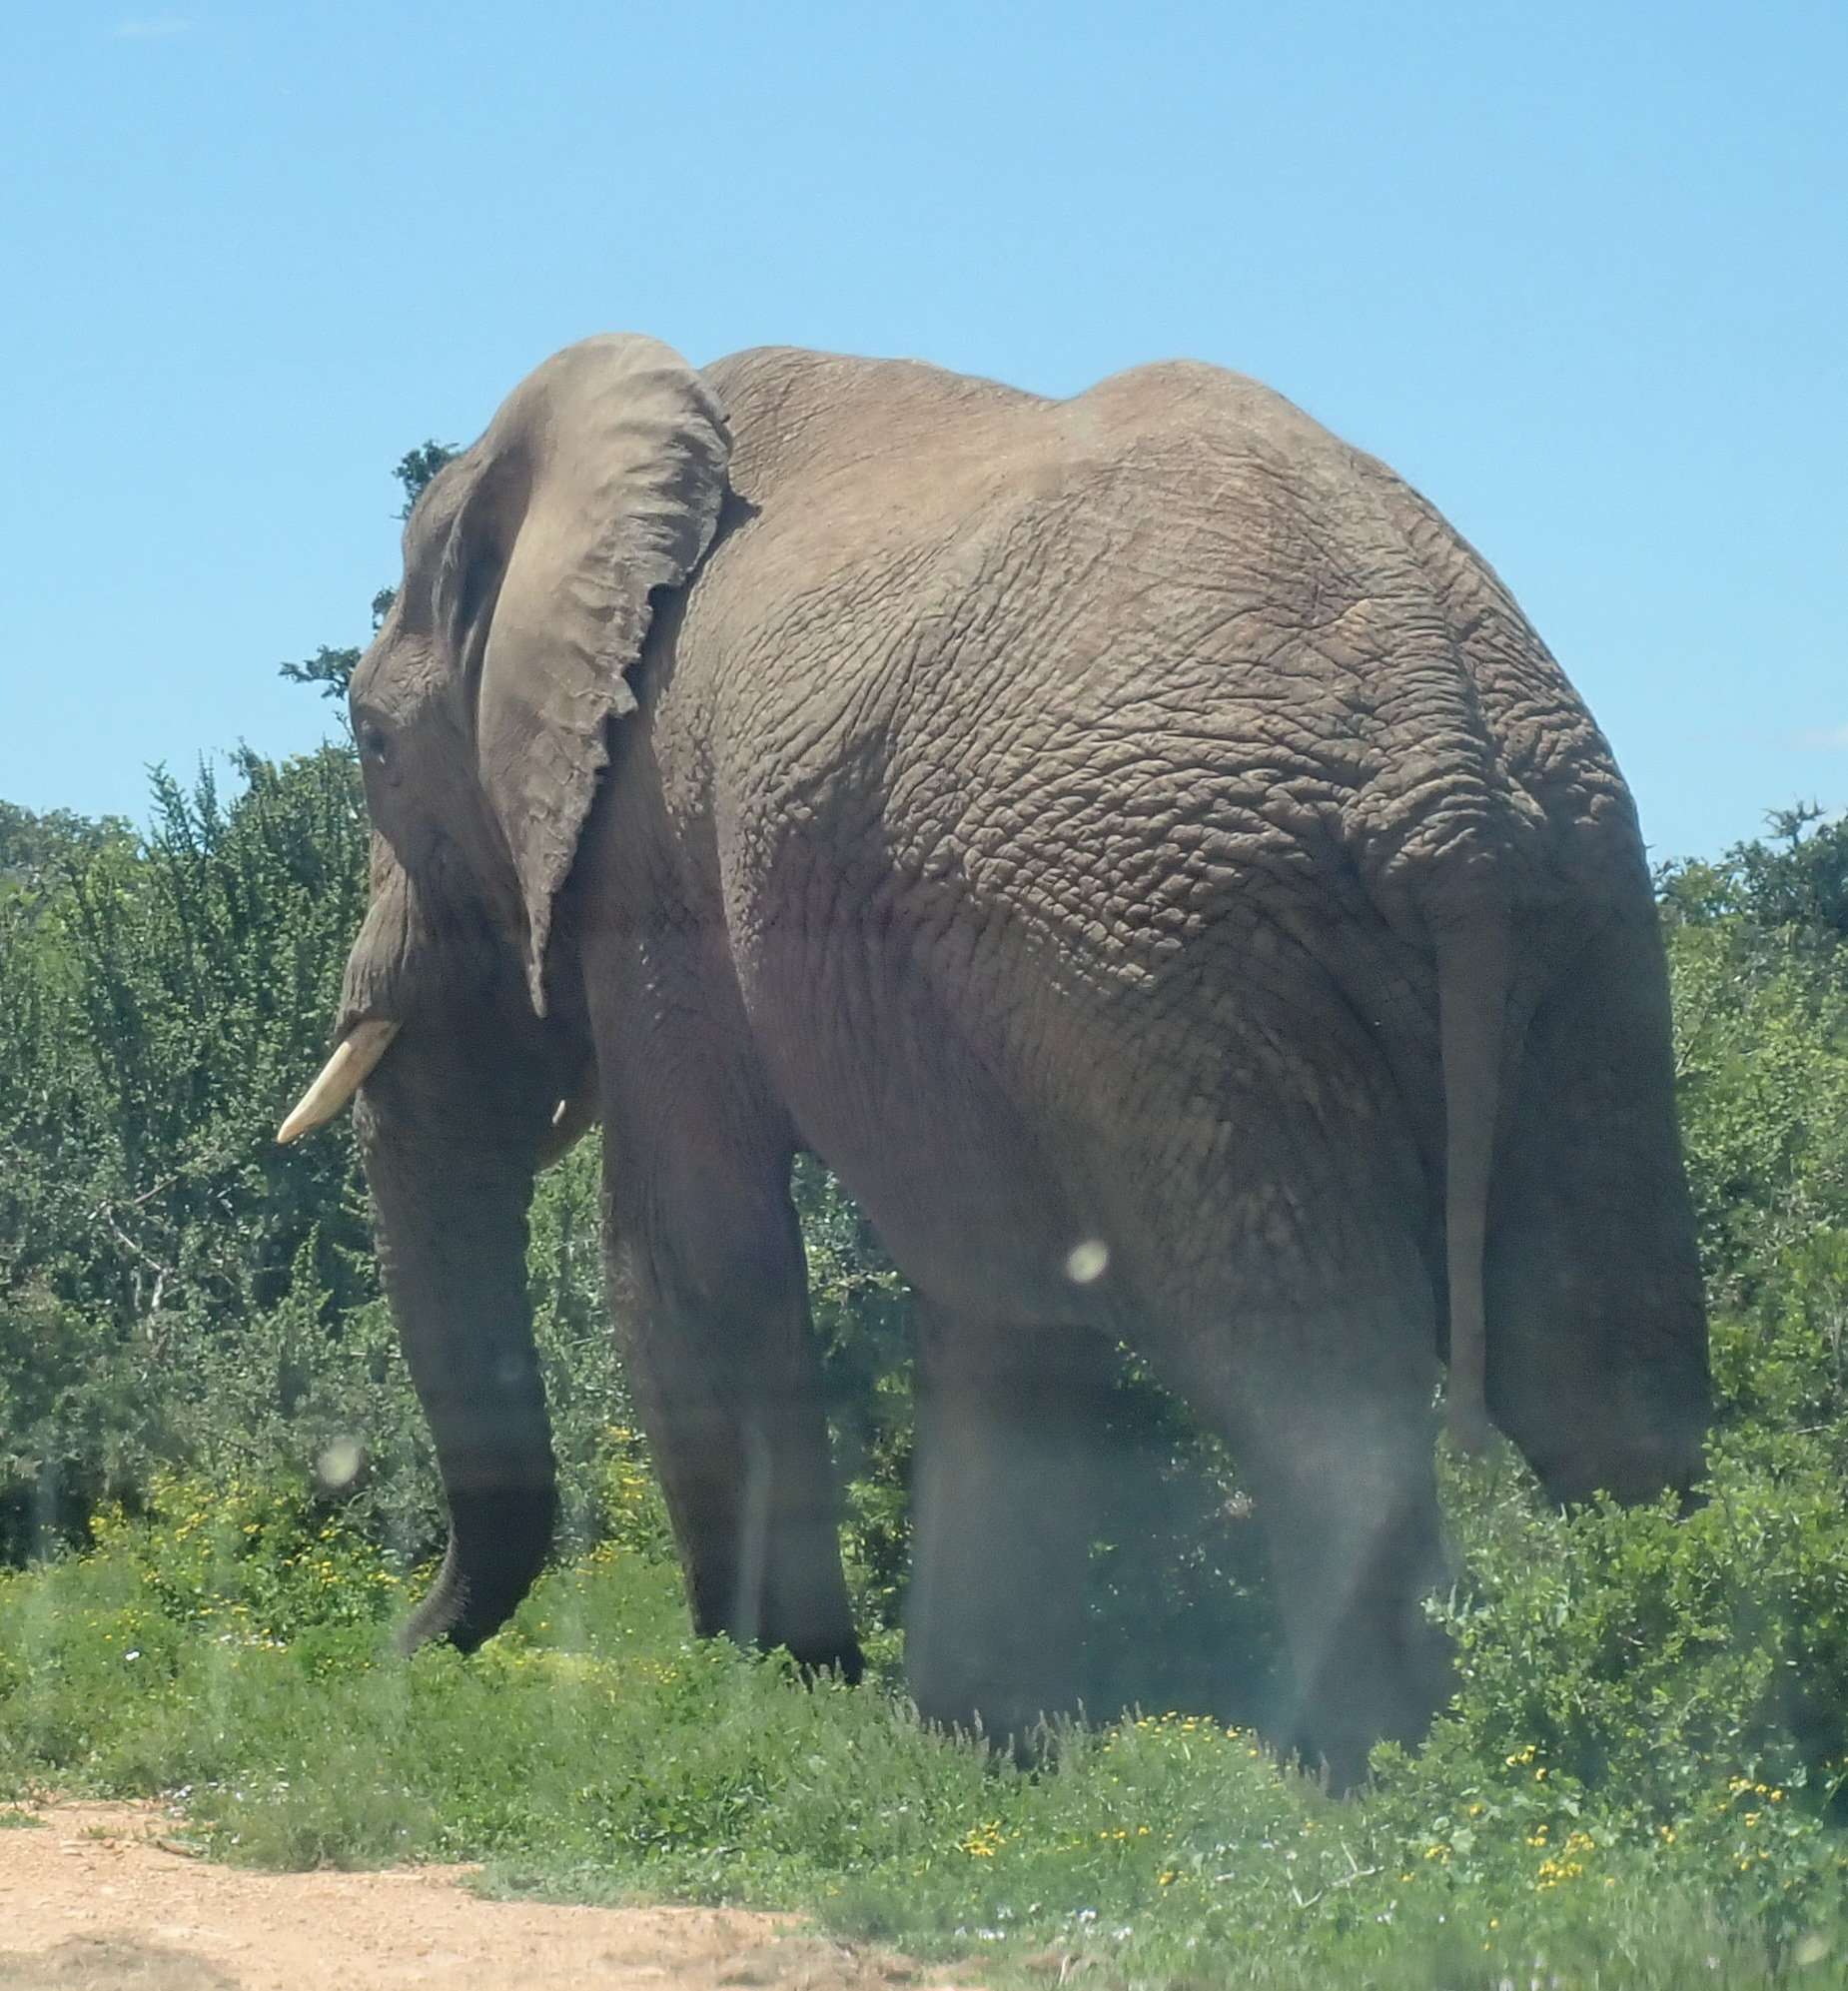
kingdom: Animalia
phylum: Chordata
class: Mammalia
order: Proboscidea
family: Elephantidae
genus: Loxodonta
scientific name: Loxodonta africana
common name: African elephant
